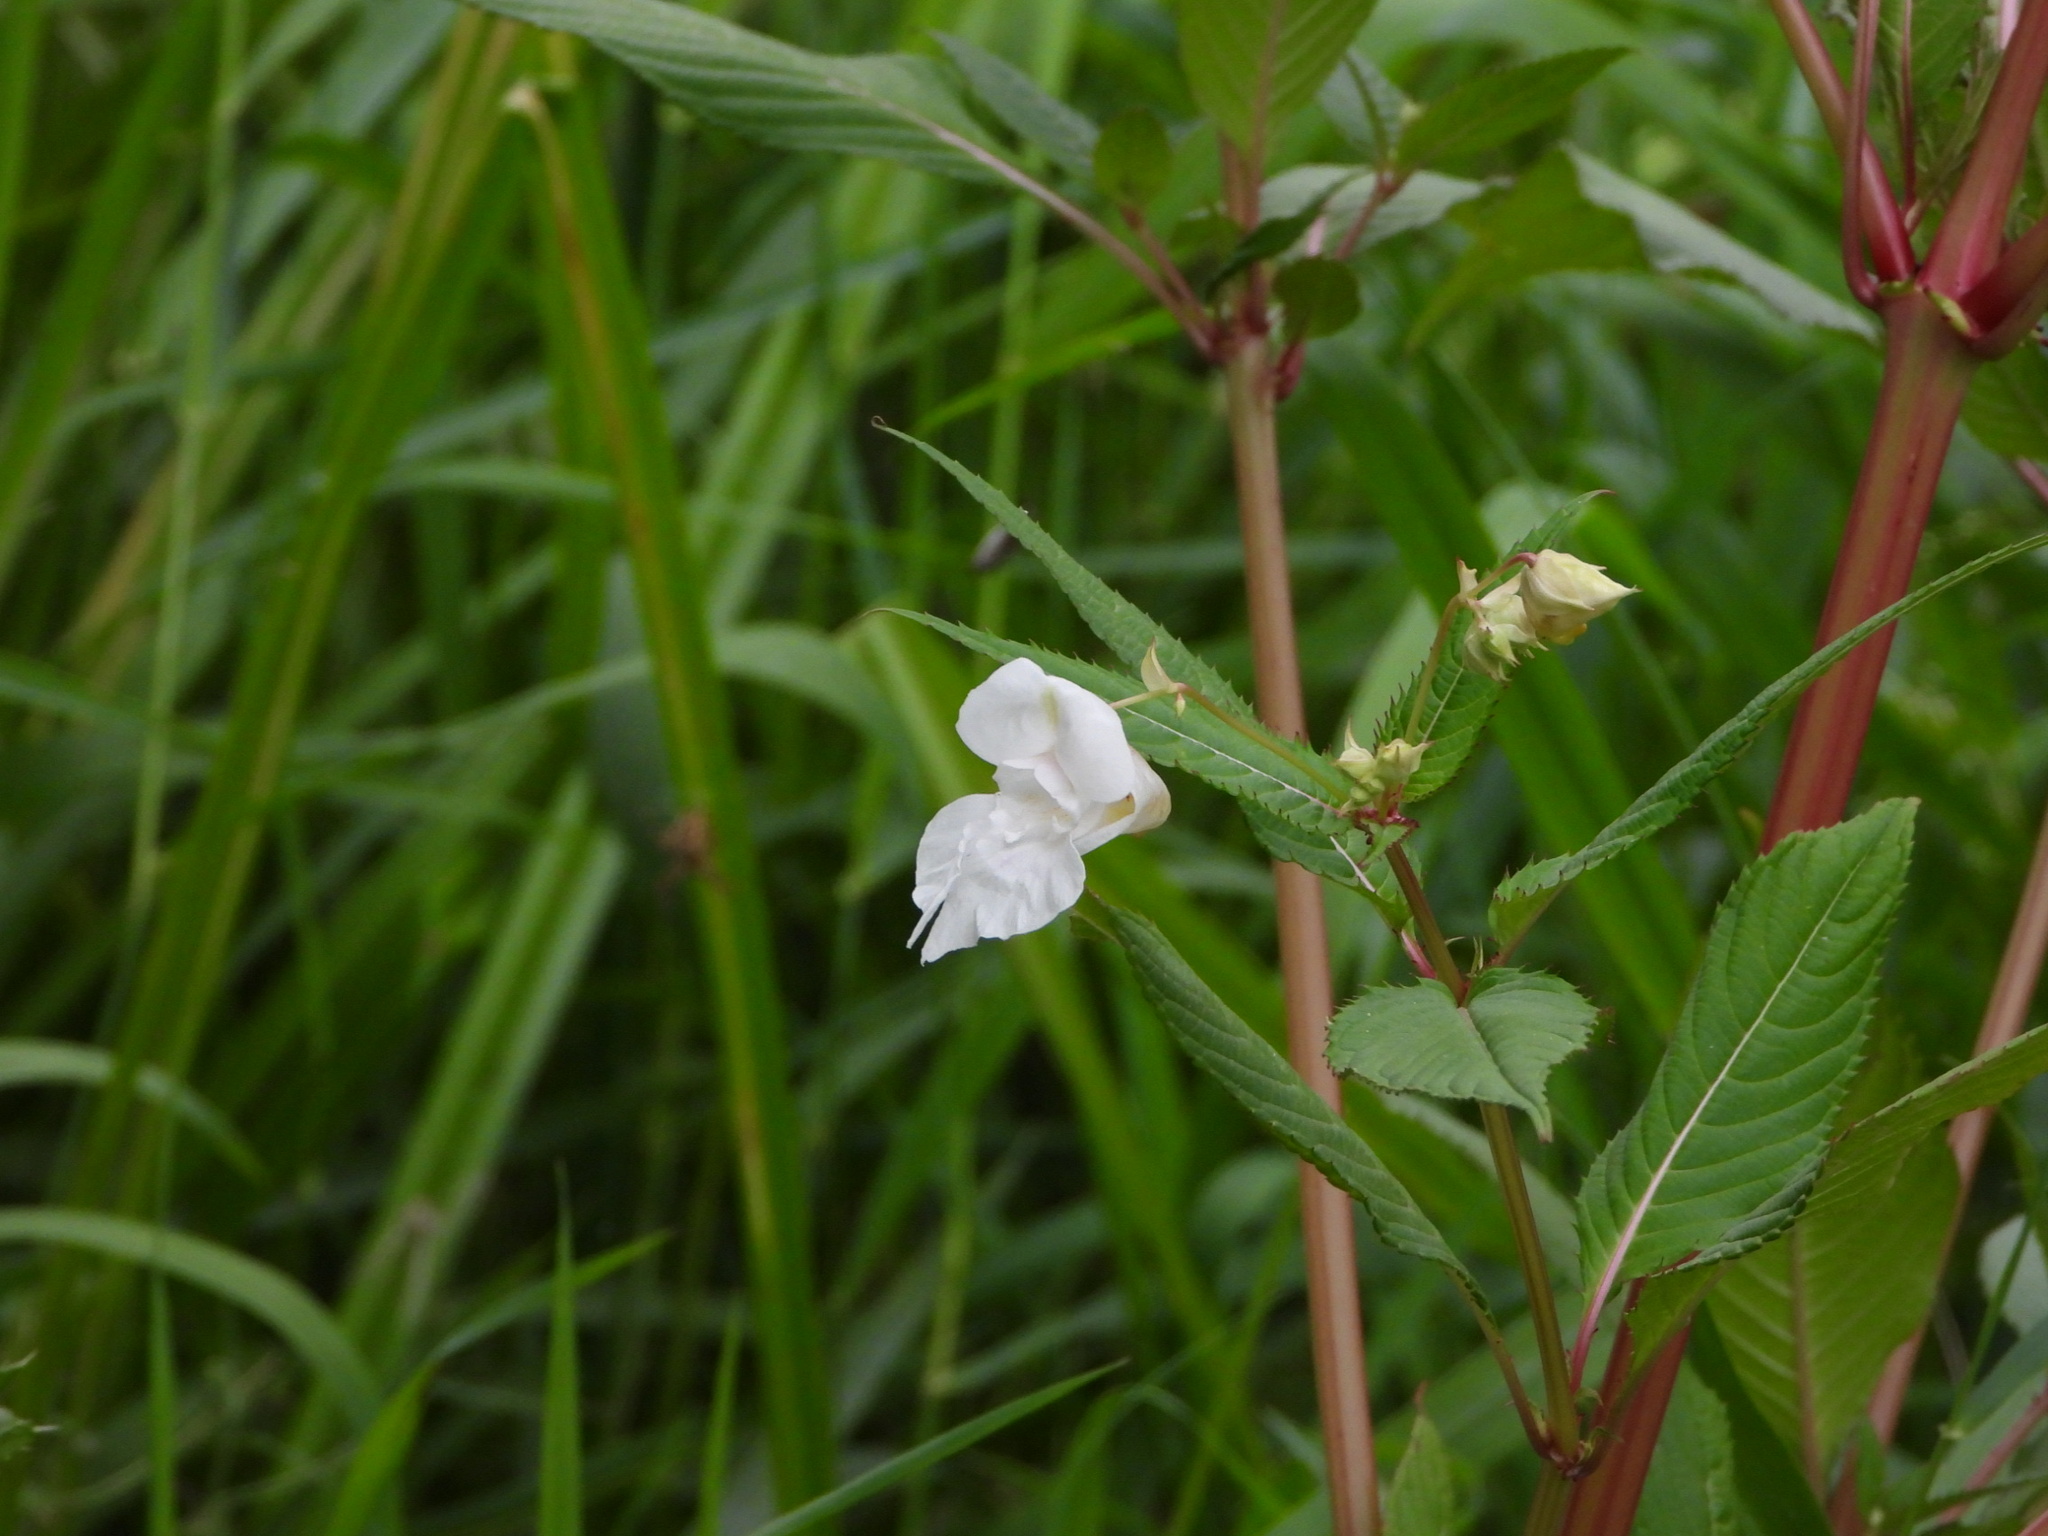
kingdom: Plantae
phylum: Tracheophyta
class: Magnoliopsida
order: Ericales
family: Balsaminaceae
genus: Impatiens
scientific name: Impatiens glandulifera
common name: Himalayan balsam
